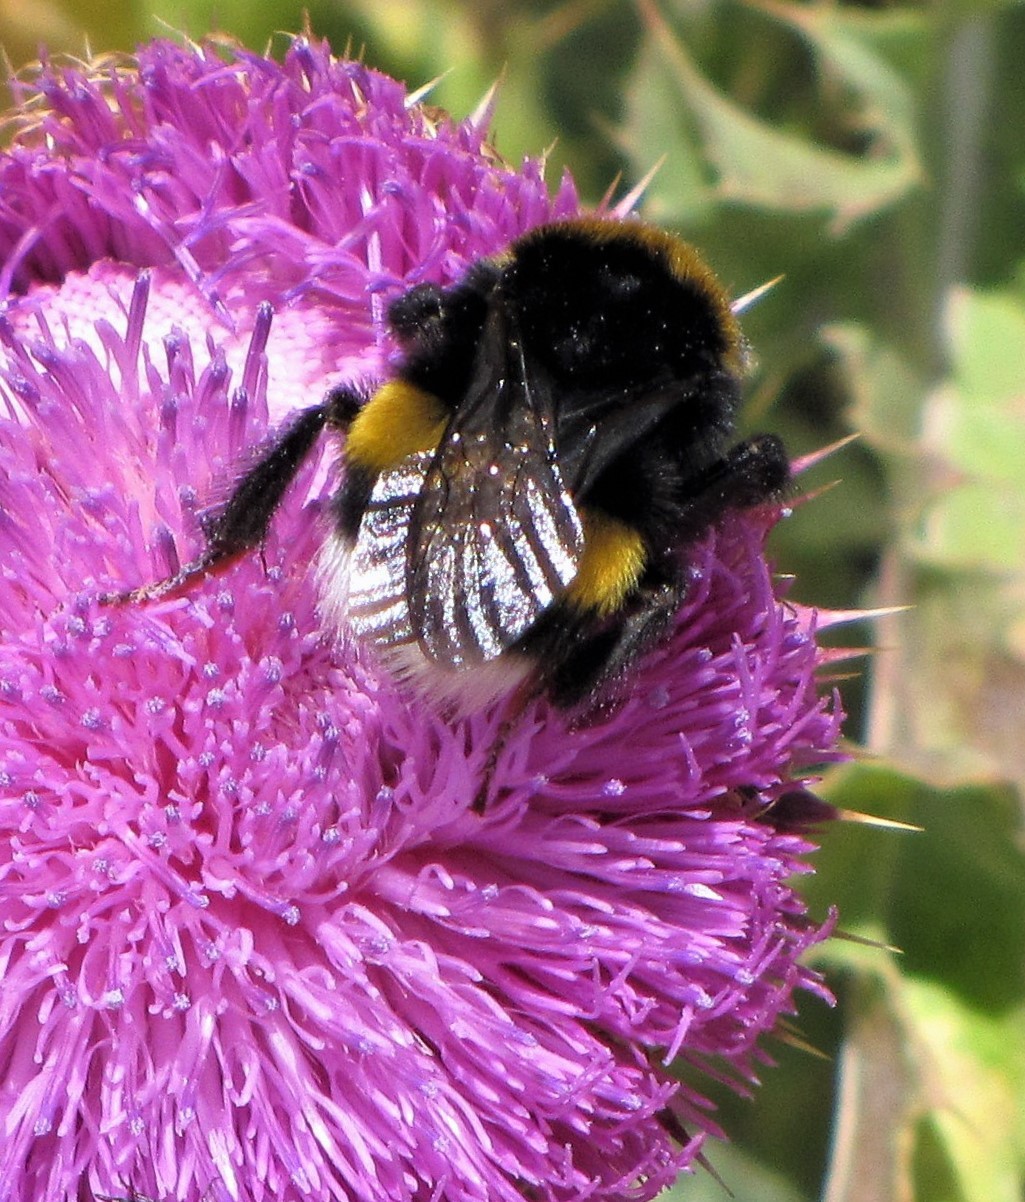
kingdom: Animalia
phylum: Arthropoda
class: Insecta
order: Hymenoptera
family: Apidae
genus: Bombus
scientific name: Bombus terrestris
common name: Buff-tailed bumblebee
